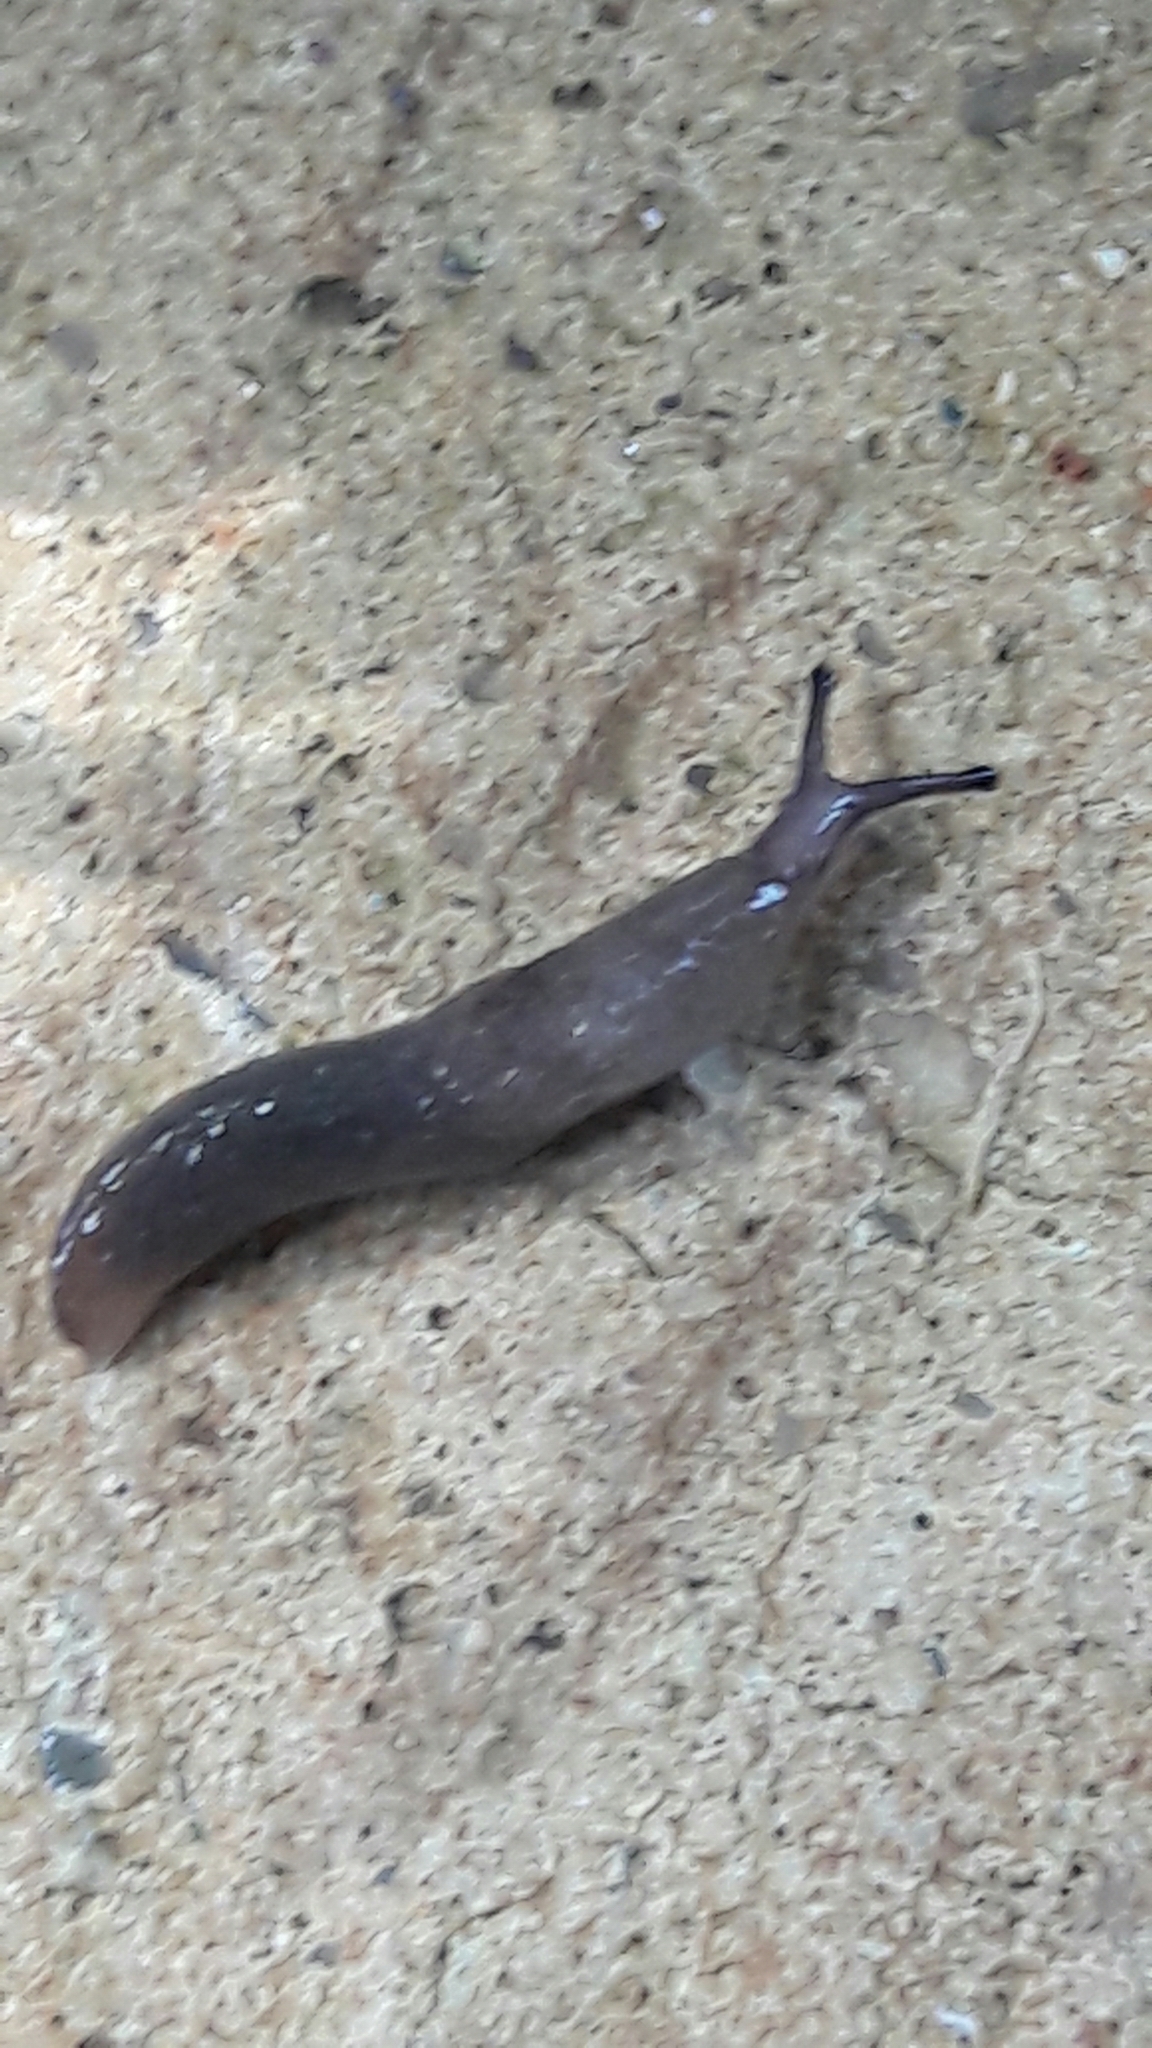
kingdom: Animalia
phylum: Mollusca
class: Gastropoda
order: Stylommatophora
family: Agriolimacidae
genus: Deroceras
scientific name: Deroceras laeve
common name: Marsh slug
